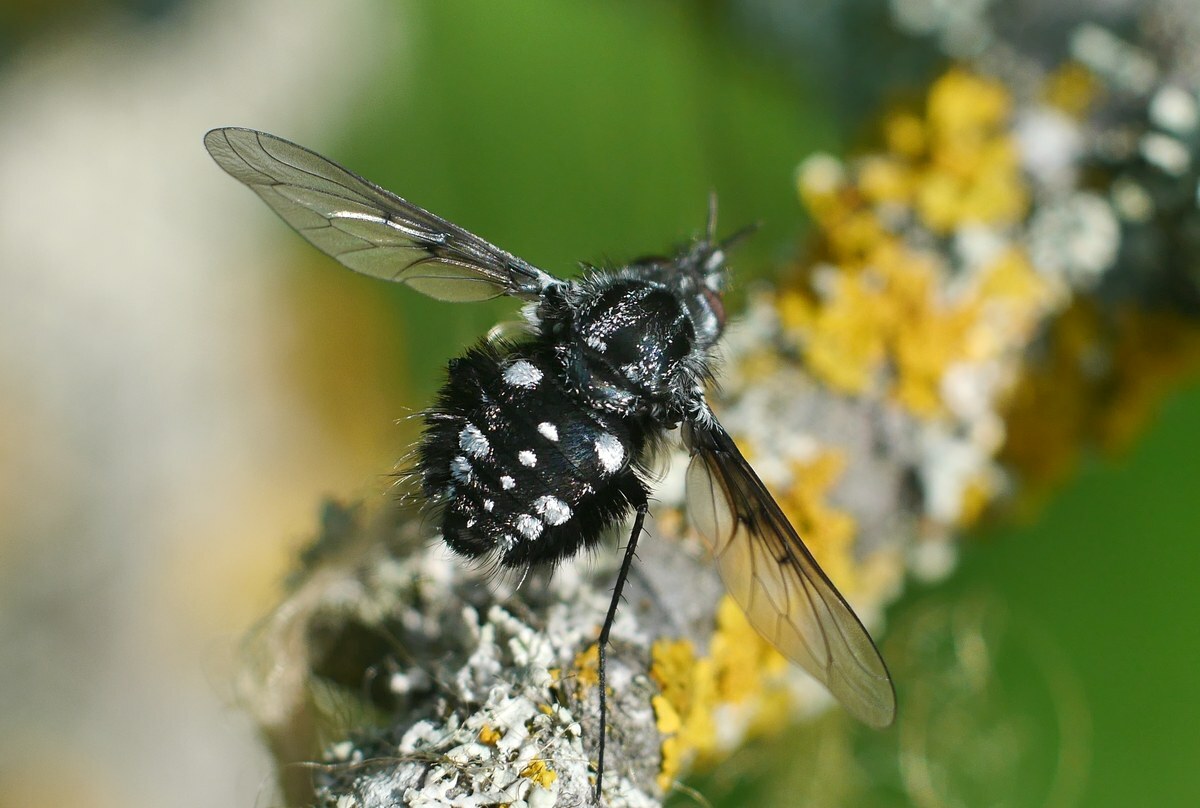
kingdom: Animalia
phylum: Arthropoda
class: Insecta
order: Diptera
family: Bombyliidae
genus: Bombylella
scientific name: Bombylella atra
